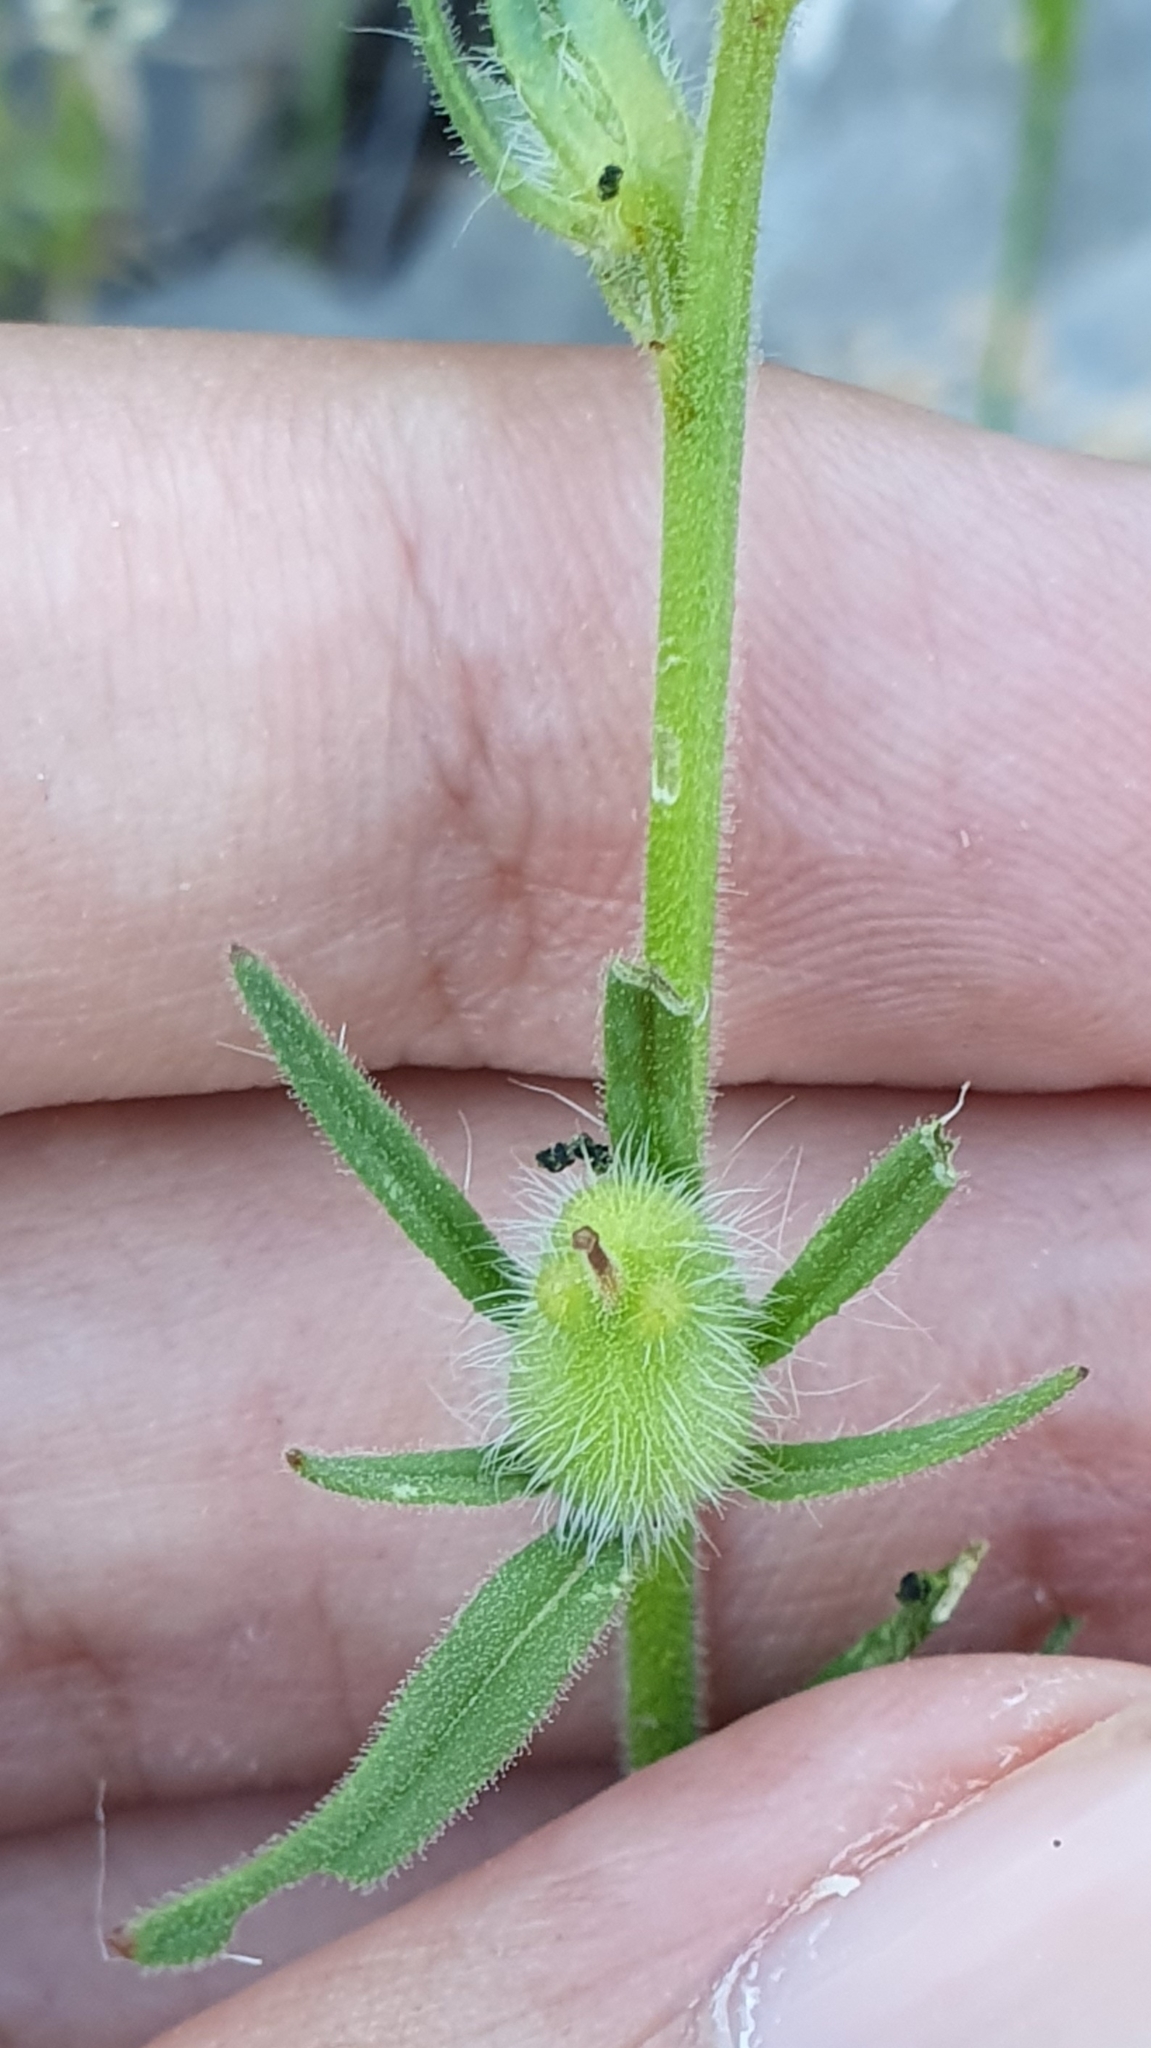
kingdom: Plantae
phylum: Tracheophyta
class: Magnoliopsida
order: Lamiales
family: Plantaginaceae
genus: Misopates
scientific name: Misopates orontium
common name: Weasel's-snout
